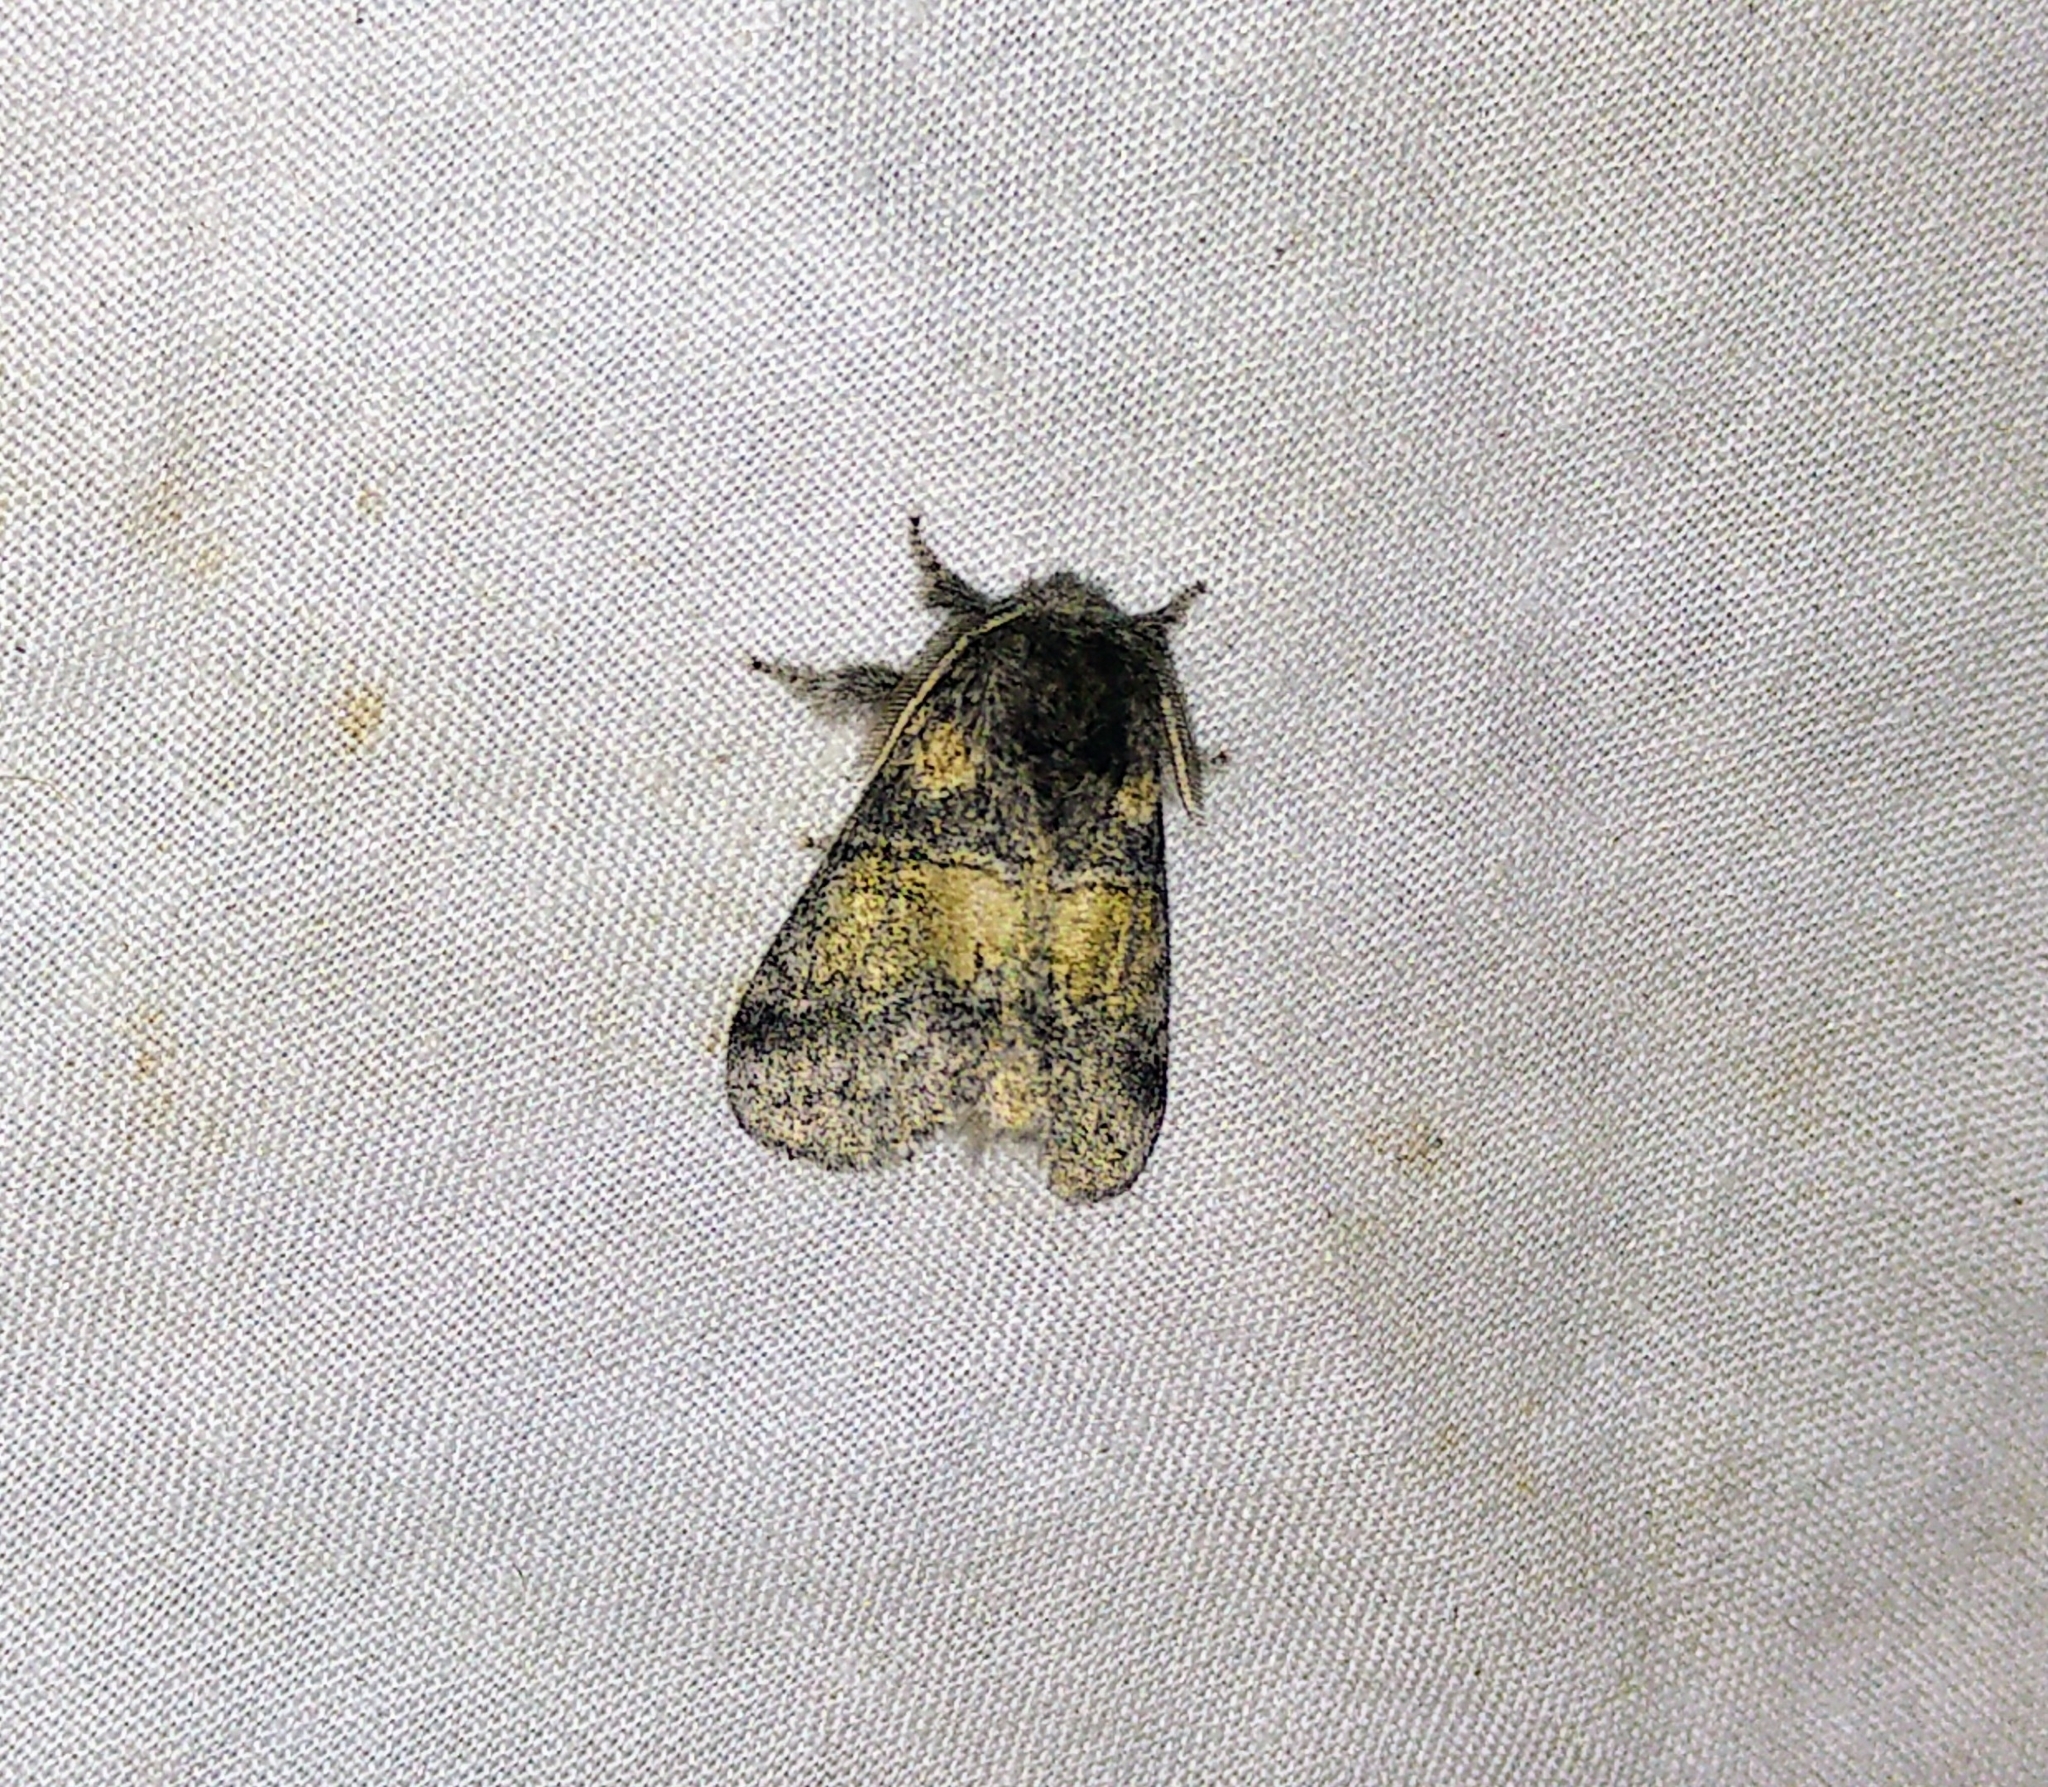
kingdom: Animalia
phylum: Arthropoda
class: Insecta
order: Lepidoptera
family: Notodontidae
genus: Gluphisia
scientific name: Gluphisia septentrionis
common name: Common gluphisia
